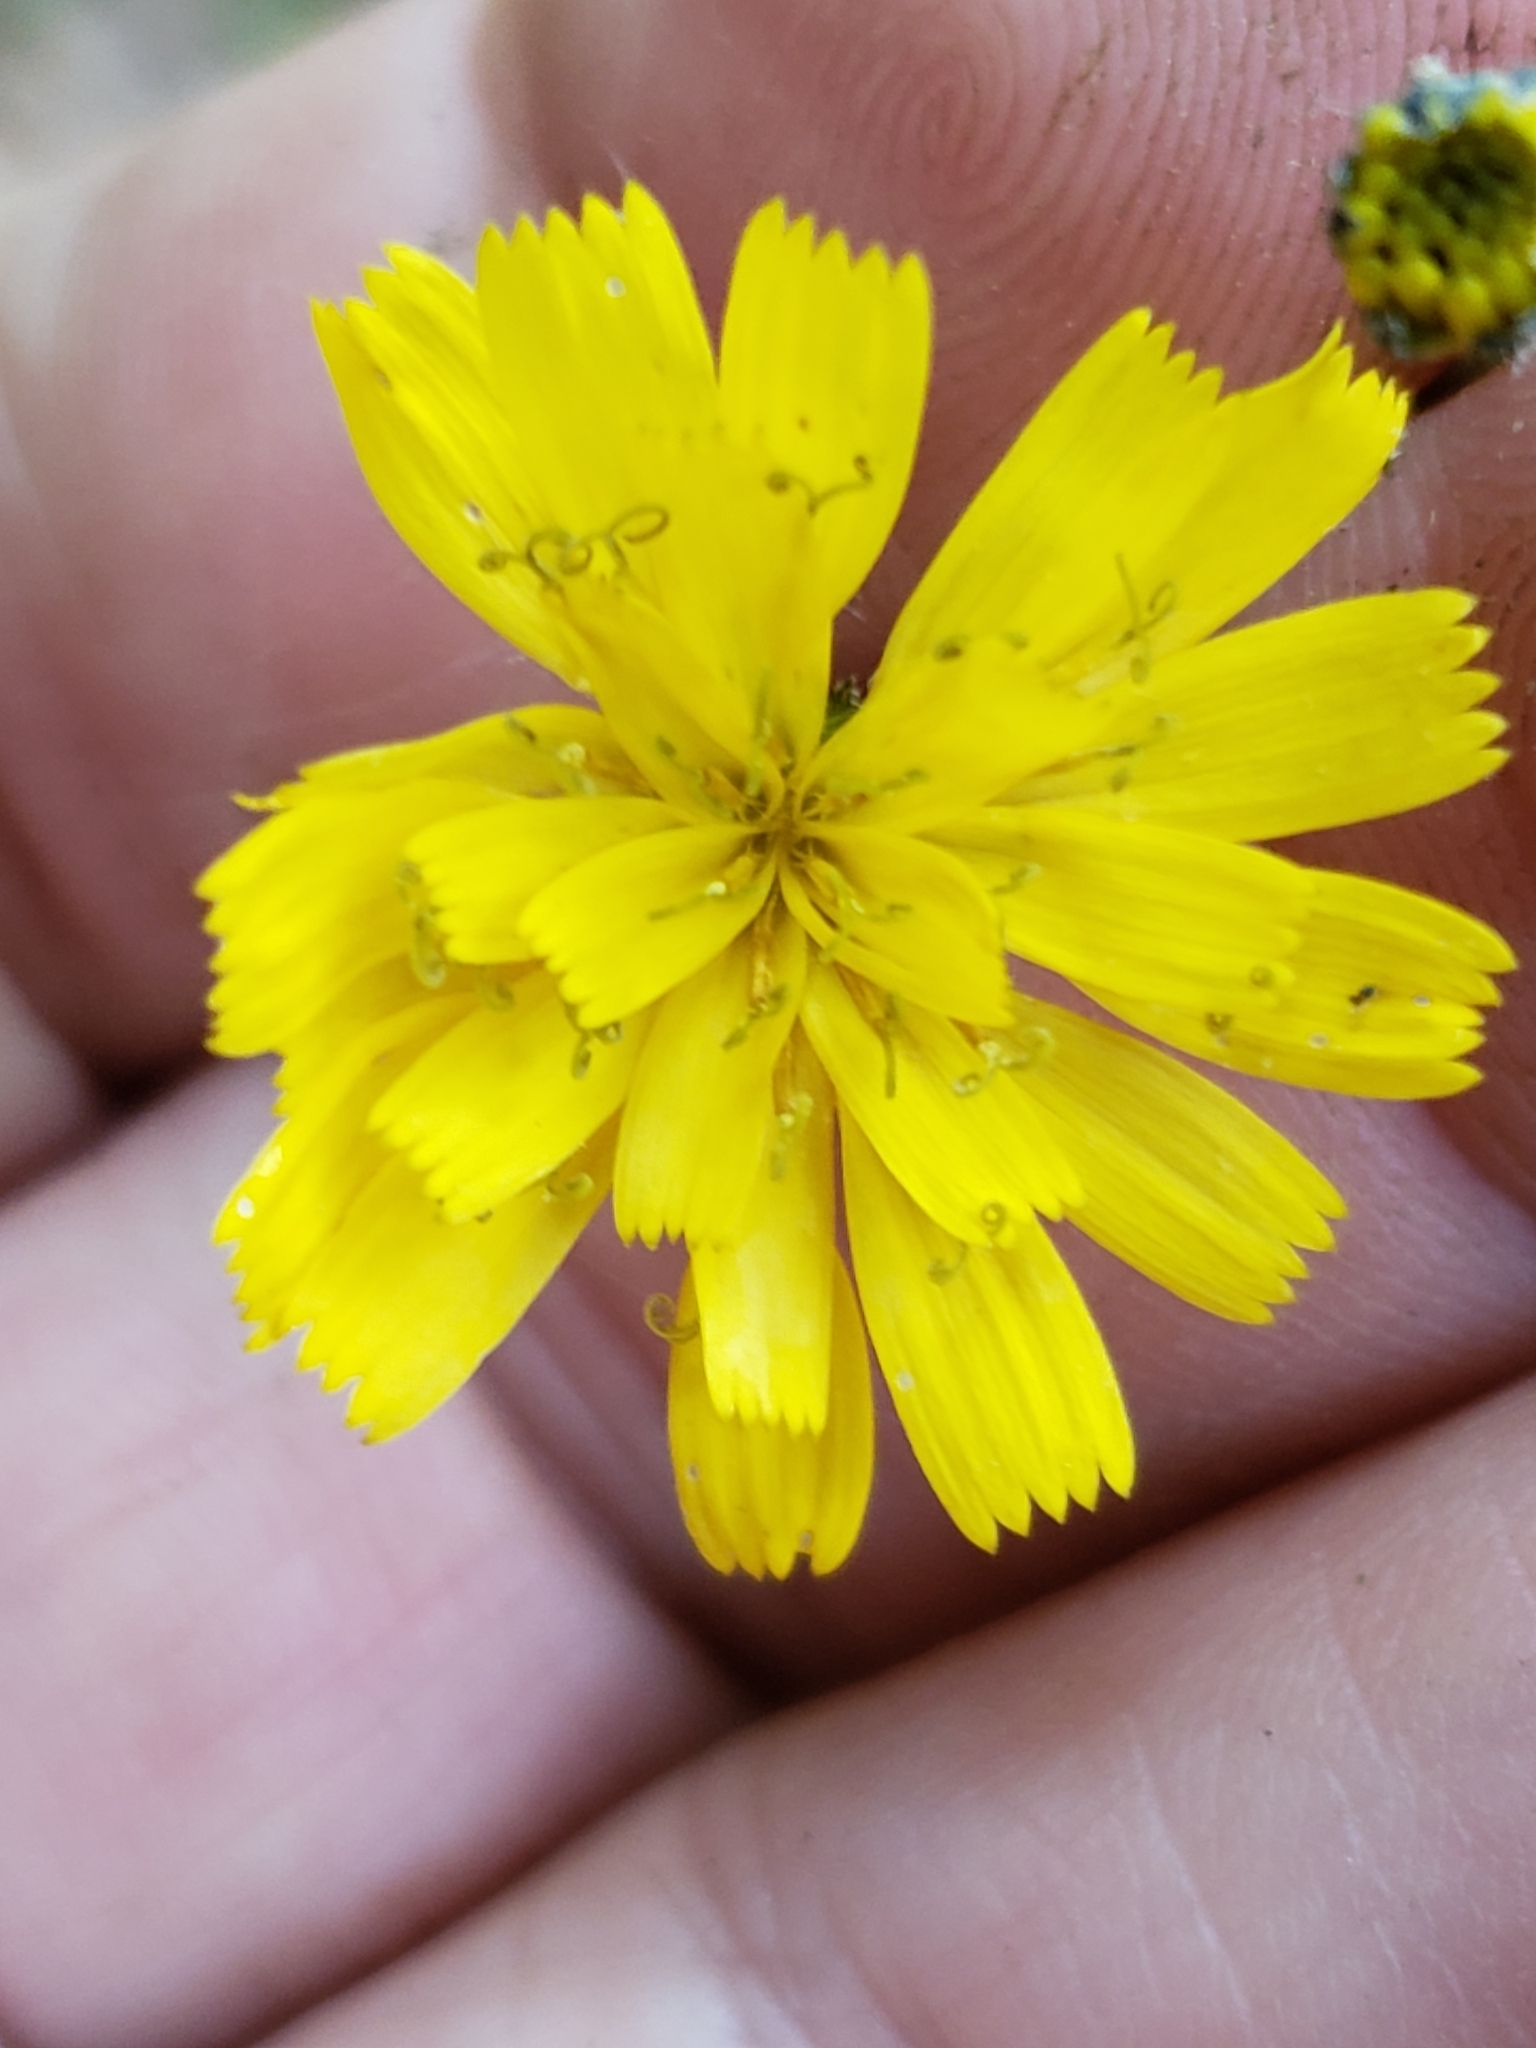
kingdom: Plantae
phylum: Tracheophyta
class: Magnoliopsida
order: Asterales
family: Asteraceae
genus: Hieracium
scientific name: Hieracium venosum
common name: Rattlesnake hawkweed
